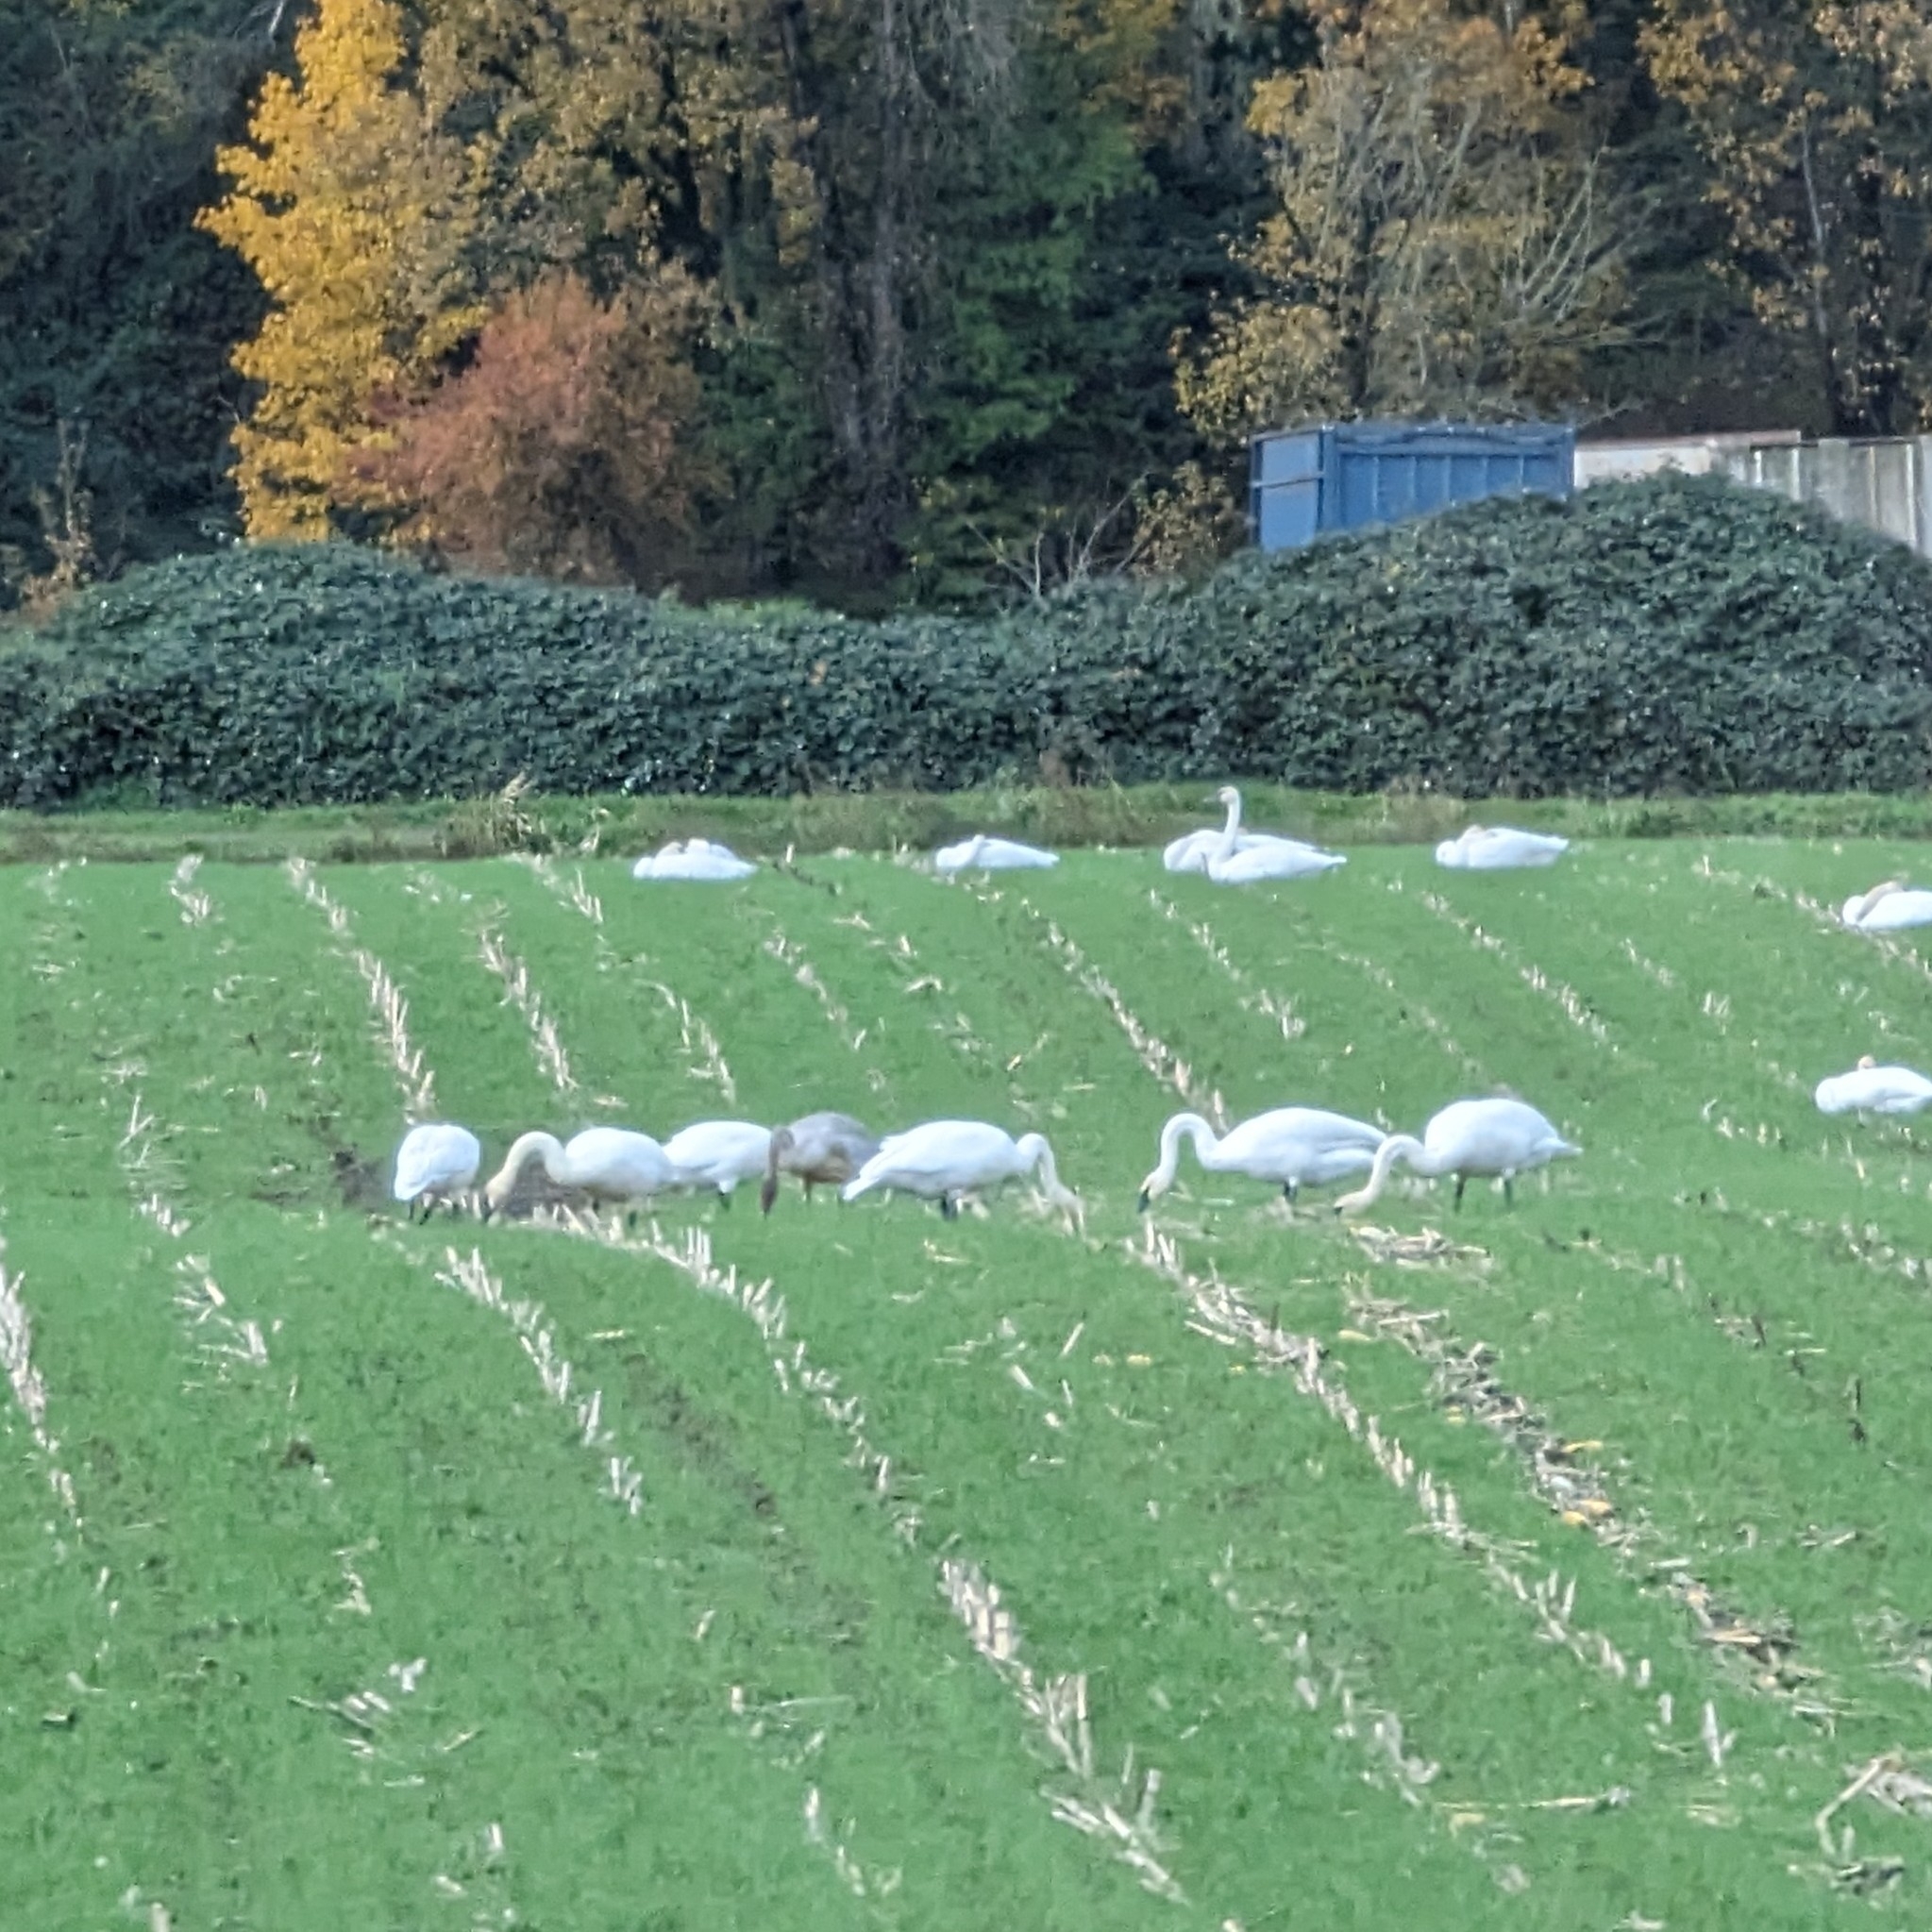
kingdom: Animalia
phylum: Chordata
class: Aves
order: Anseriformes
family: Anatidae
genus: Cygnus
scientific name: Cygnus buccinator
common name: Trumpeter swan
